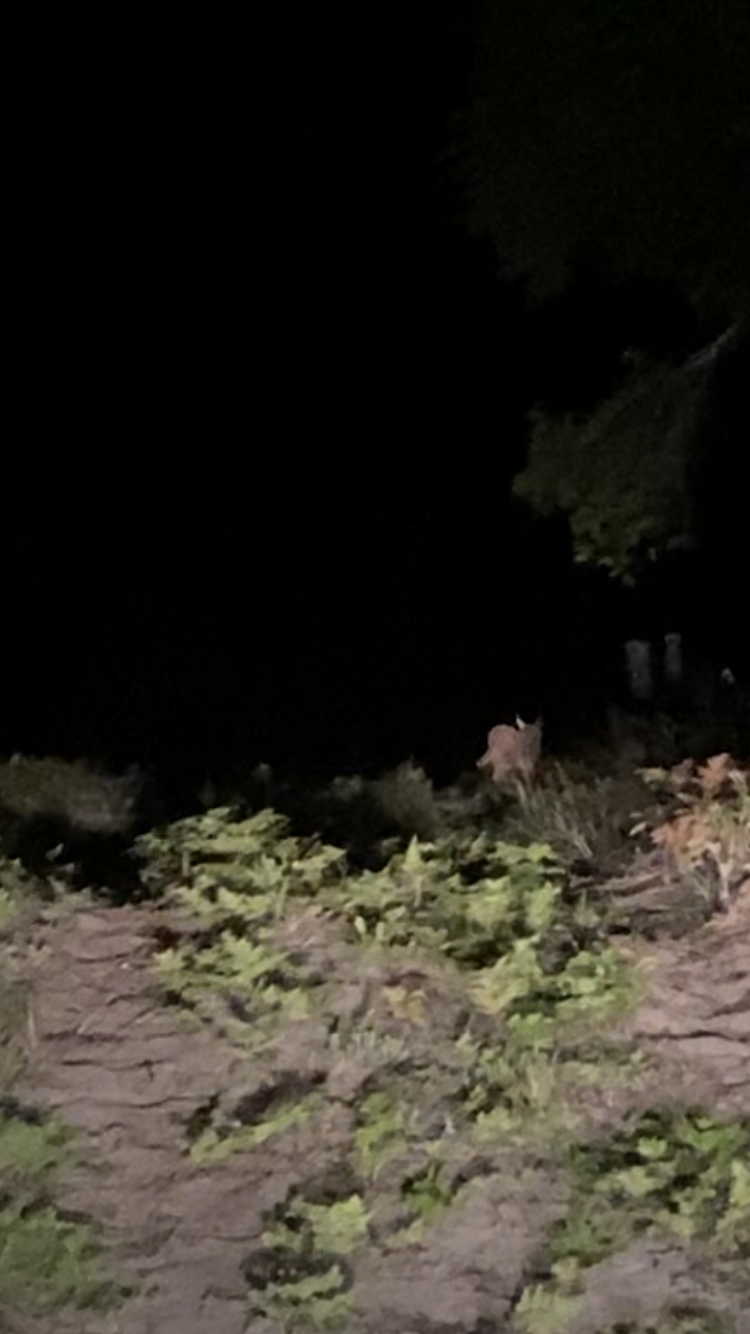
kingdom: Animalia
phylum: Chordata
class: Mammalia
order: Carnivora
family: Felidae
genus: Caracal
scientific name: Caracal caracal
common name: Caracal
